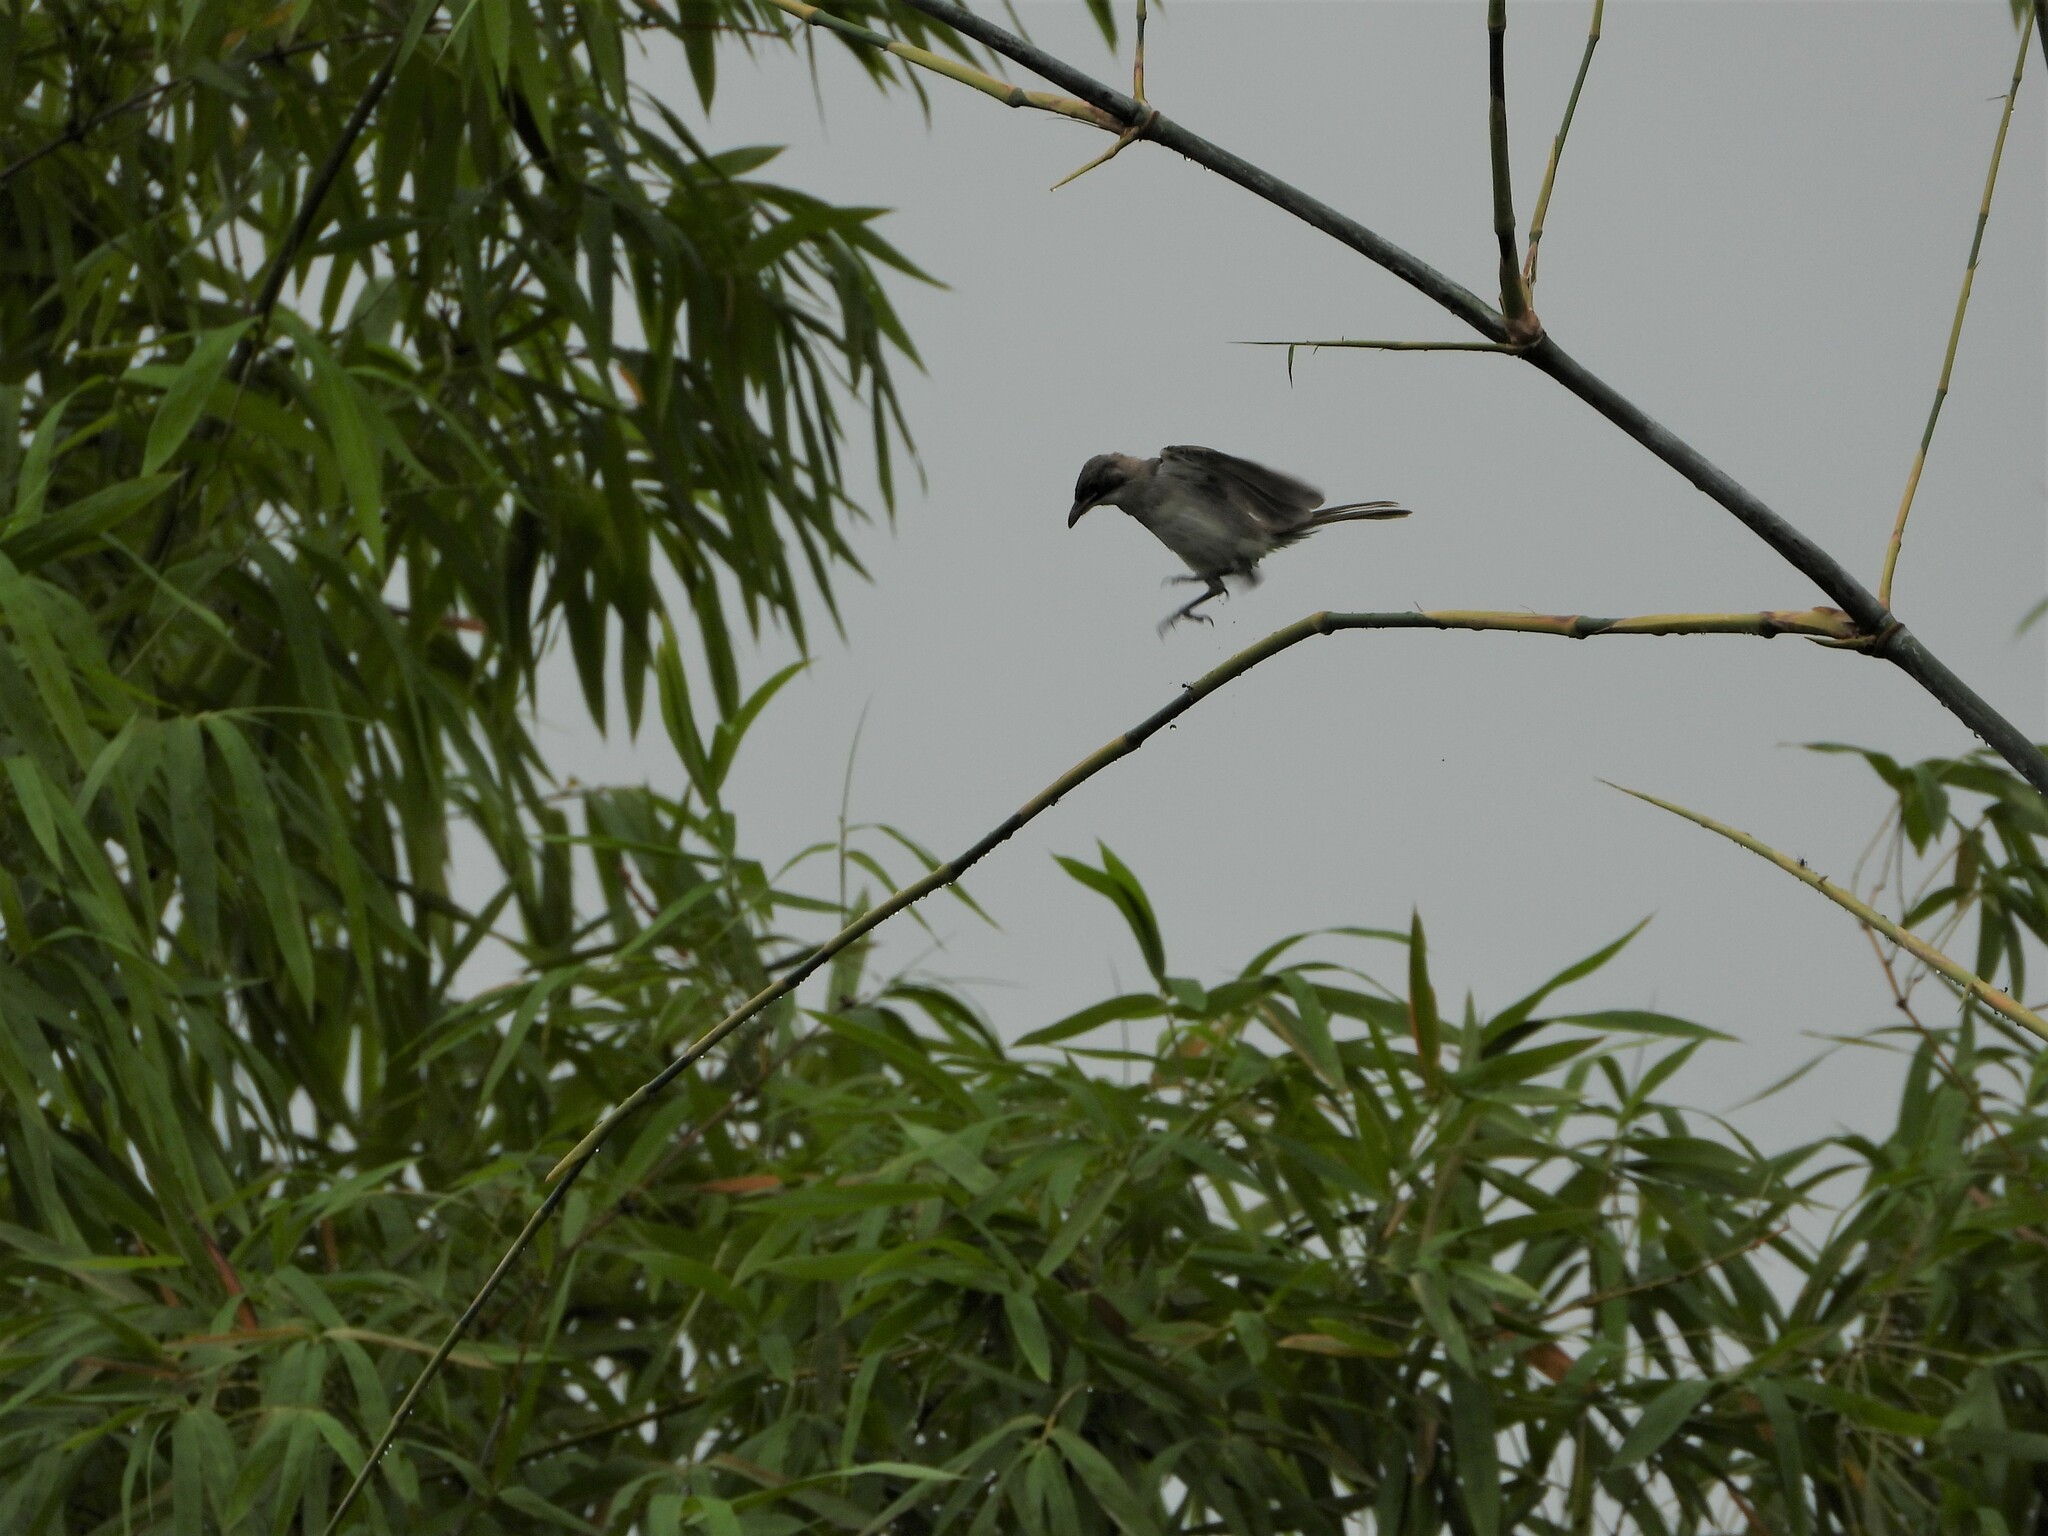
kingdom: Animalia
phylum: Chordata
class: Aves
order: Passeriformes
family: Pycnonotidae
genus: Pycnonotus
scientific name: Pycnonotus sinensis
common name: Light-vented bulbul
